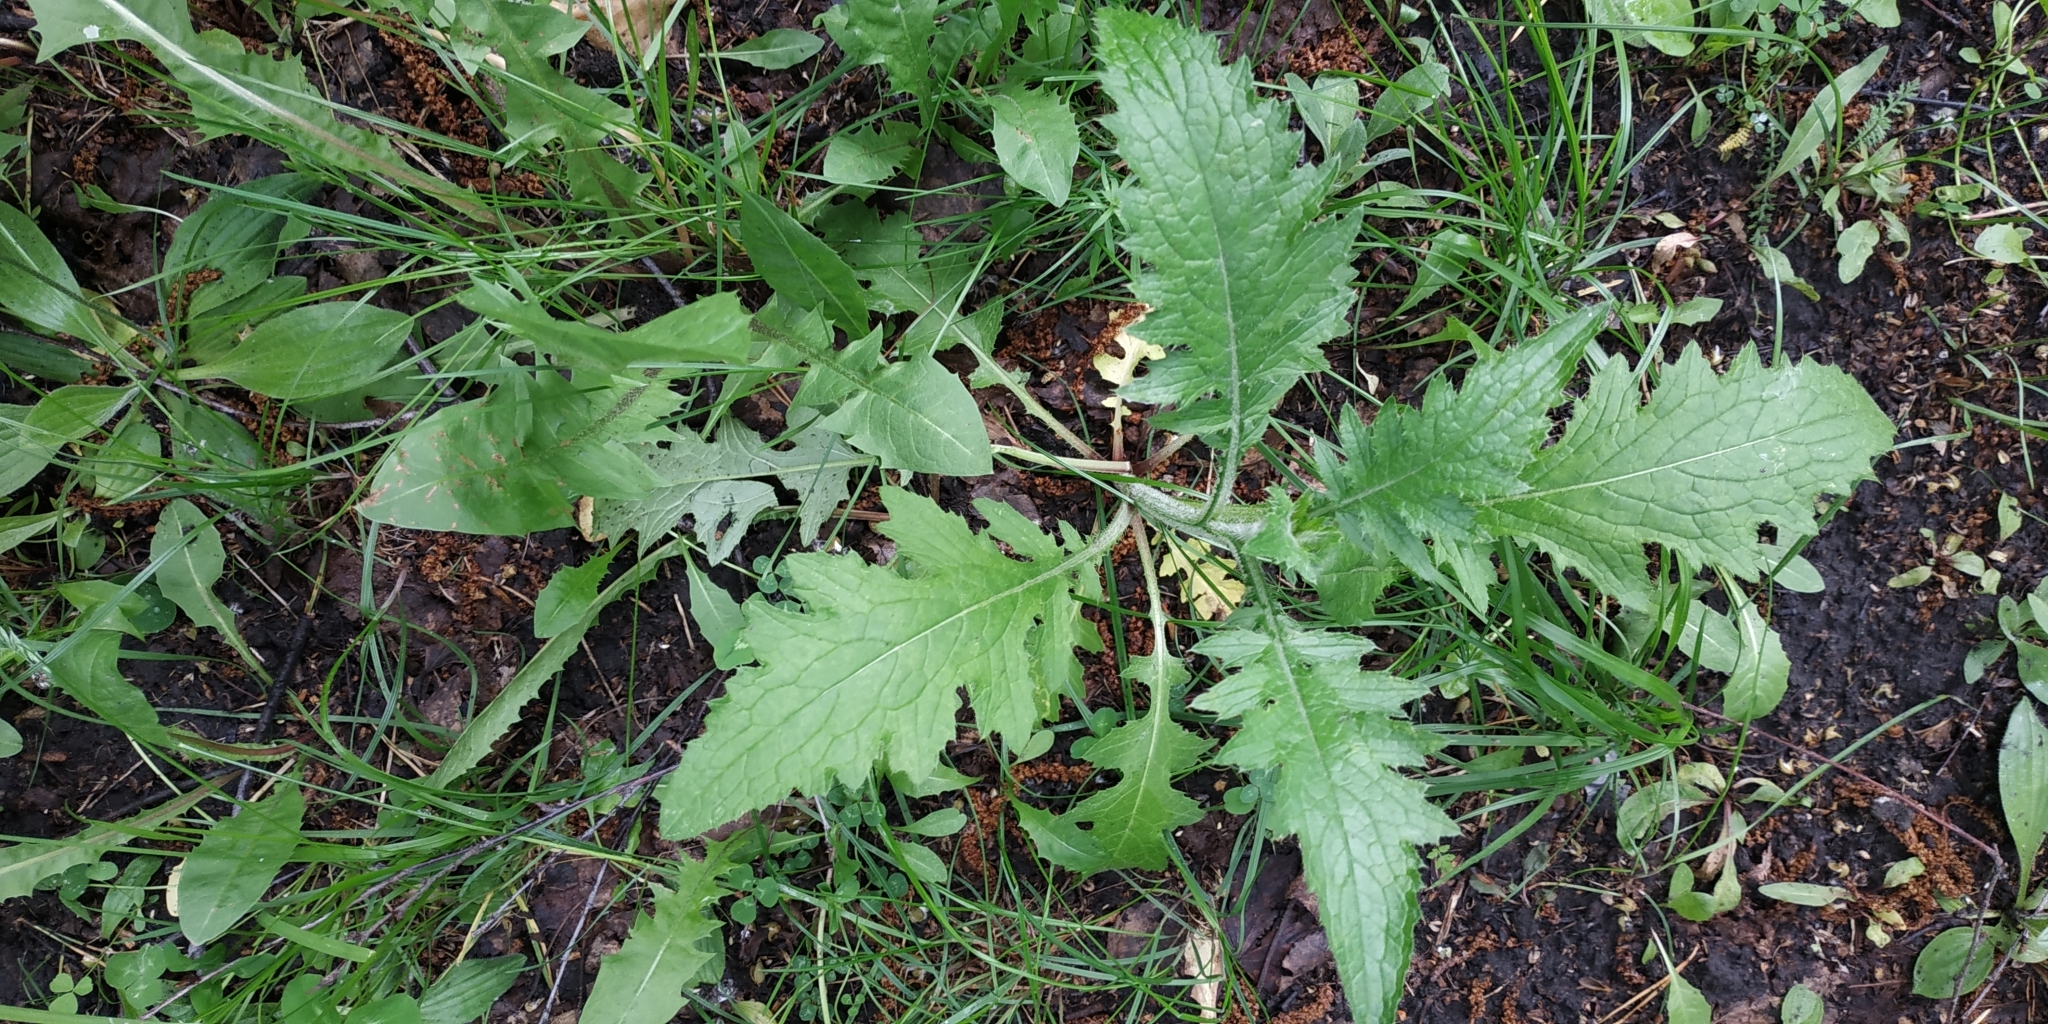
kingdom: Plantae
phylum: Tracheophyta
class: Magnoliopsida
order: Asterales
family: Asteraceae
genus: Carduus
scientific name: Carduus crispus
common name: Welted thistle
